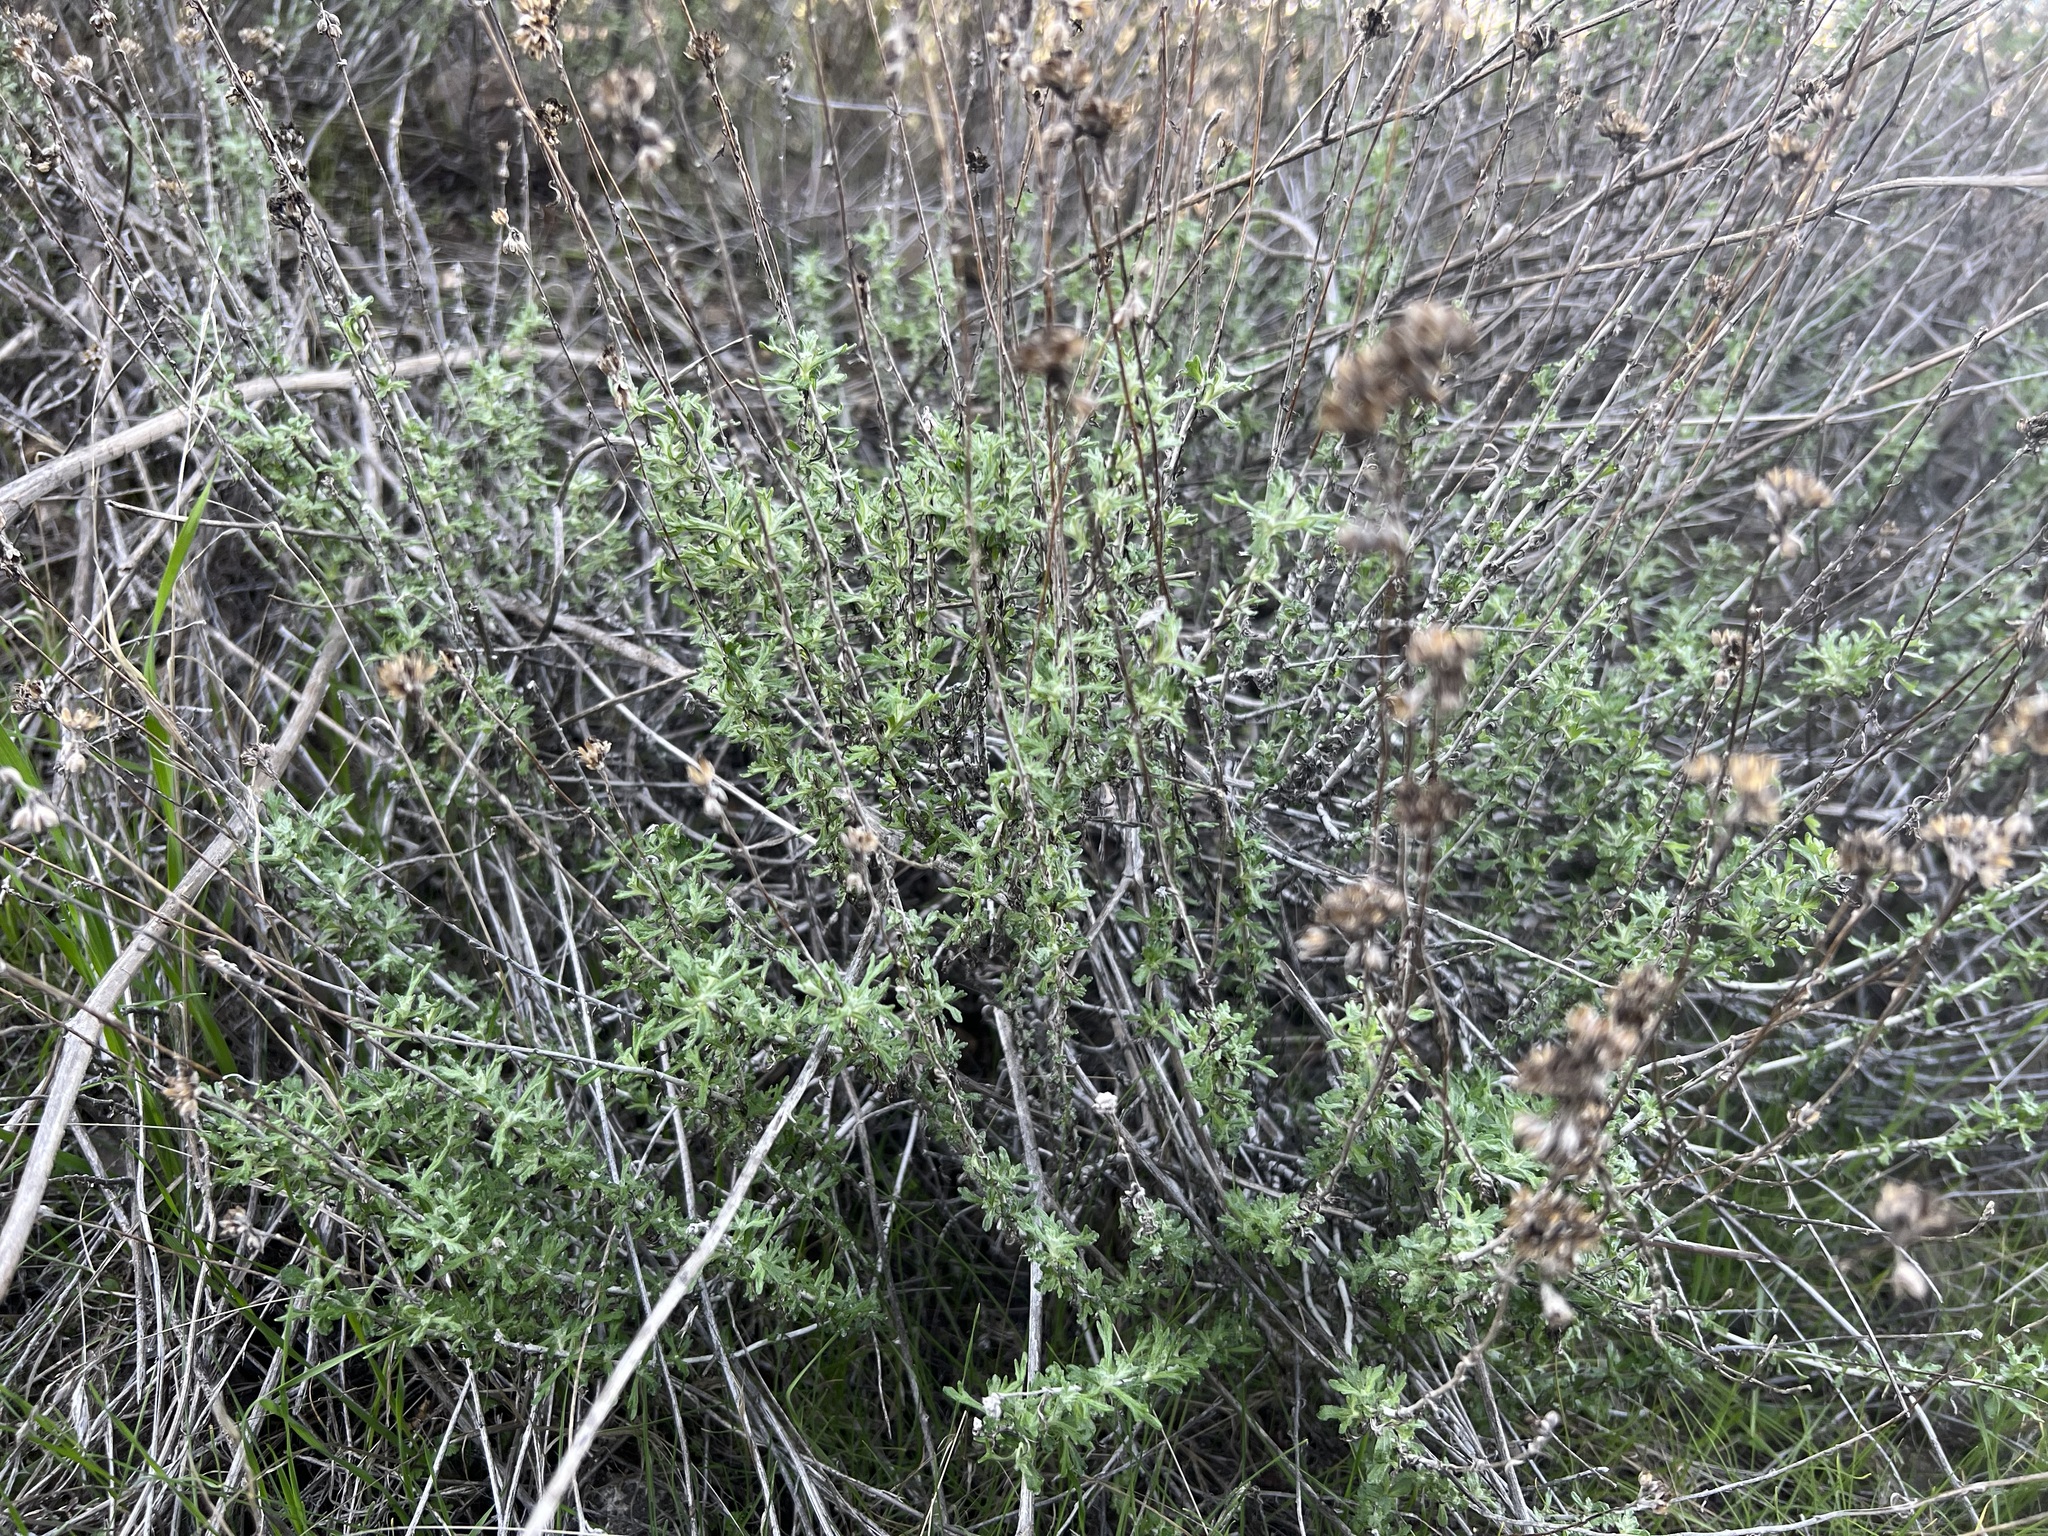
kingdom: Plantae
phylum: Tracheophyta
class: Magnoliopsida
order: Asterales
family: Asteraceae
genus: Eriophyllum
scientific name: Eriophyllum confertiflorum
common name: Golden-yarrow
